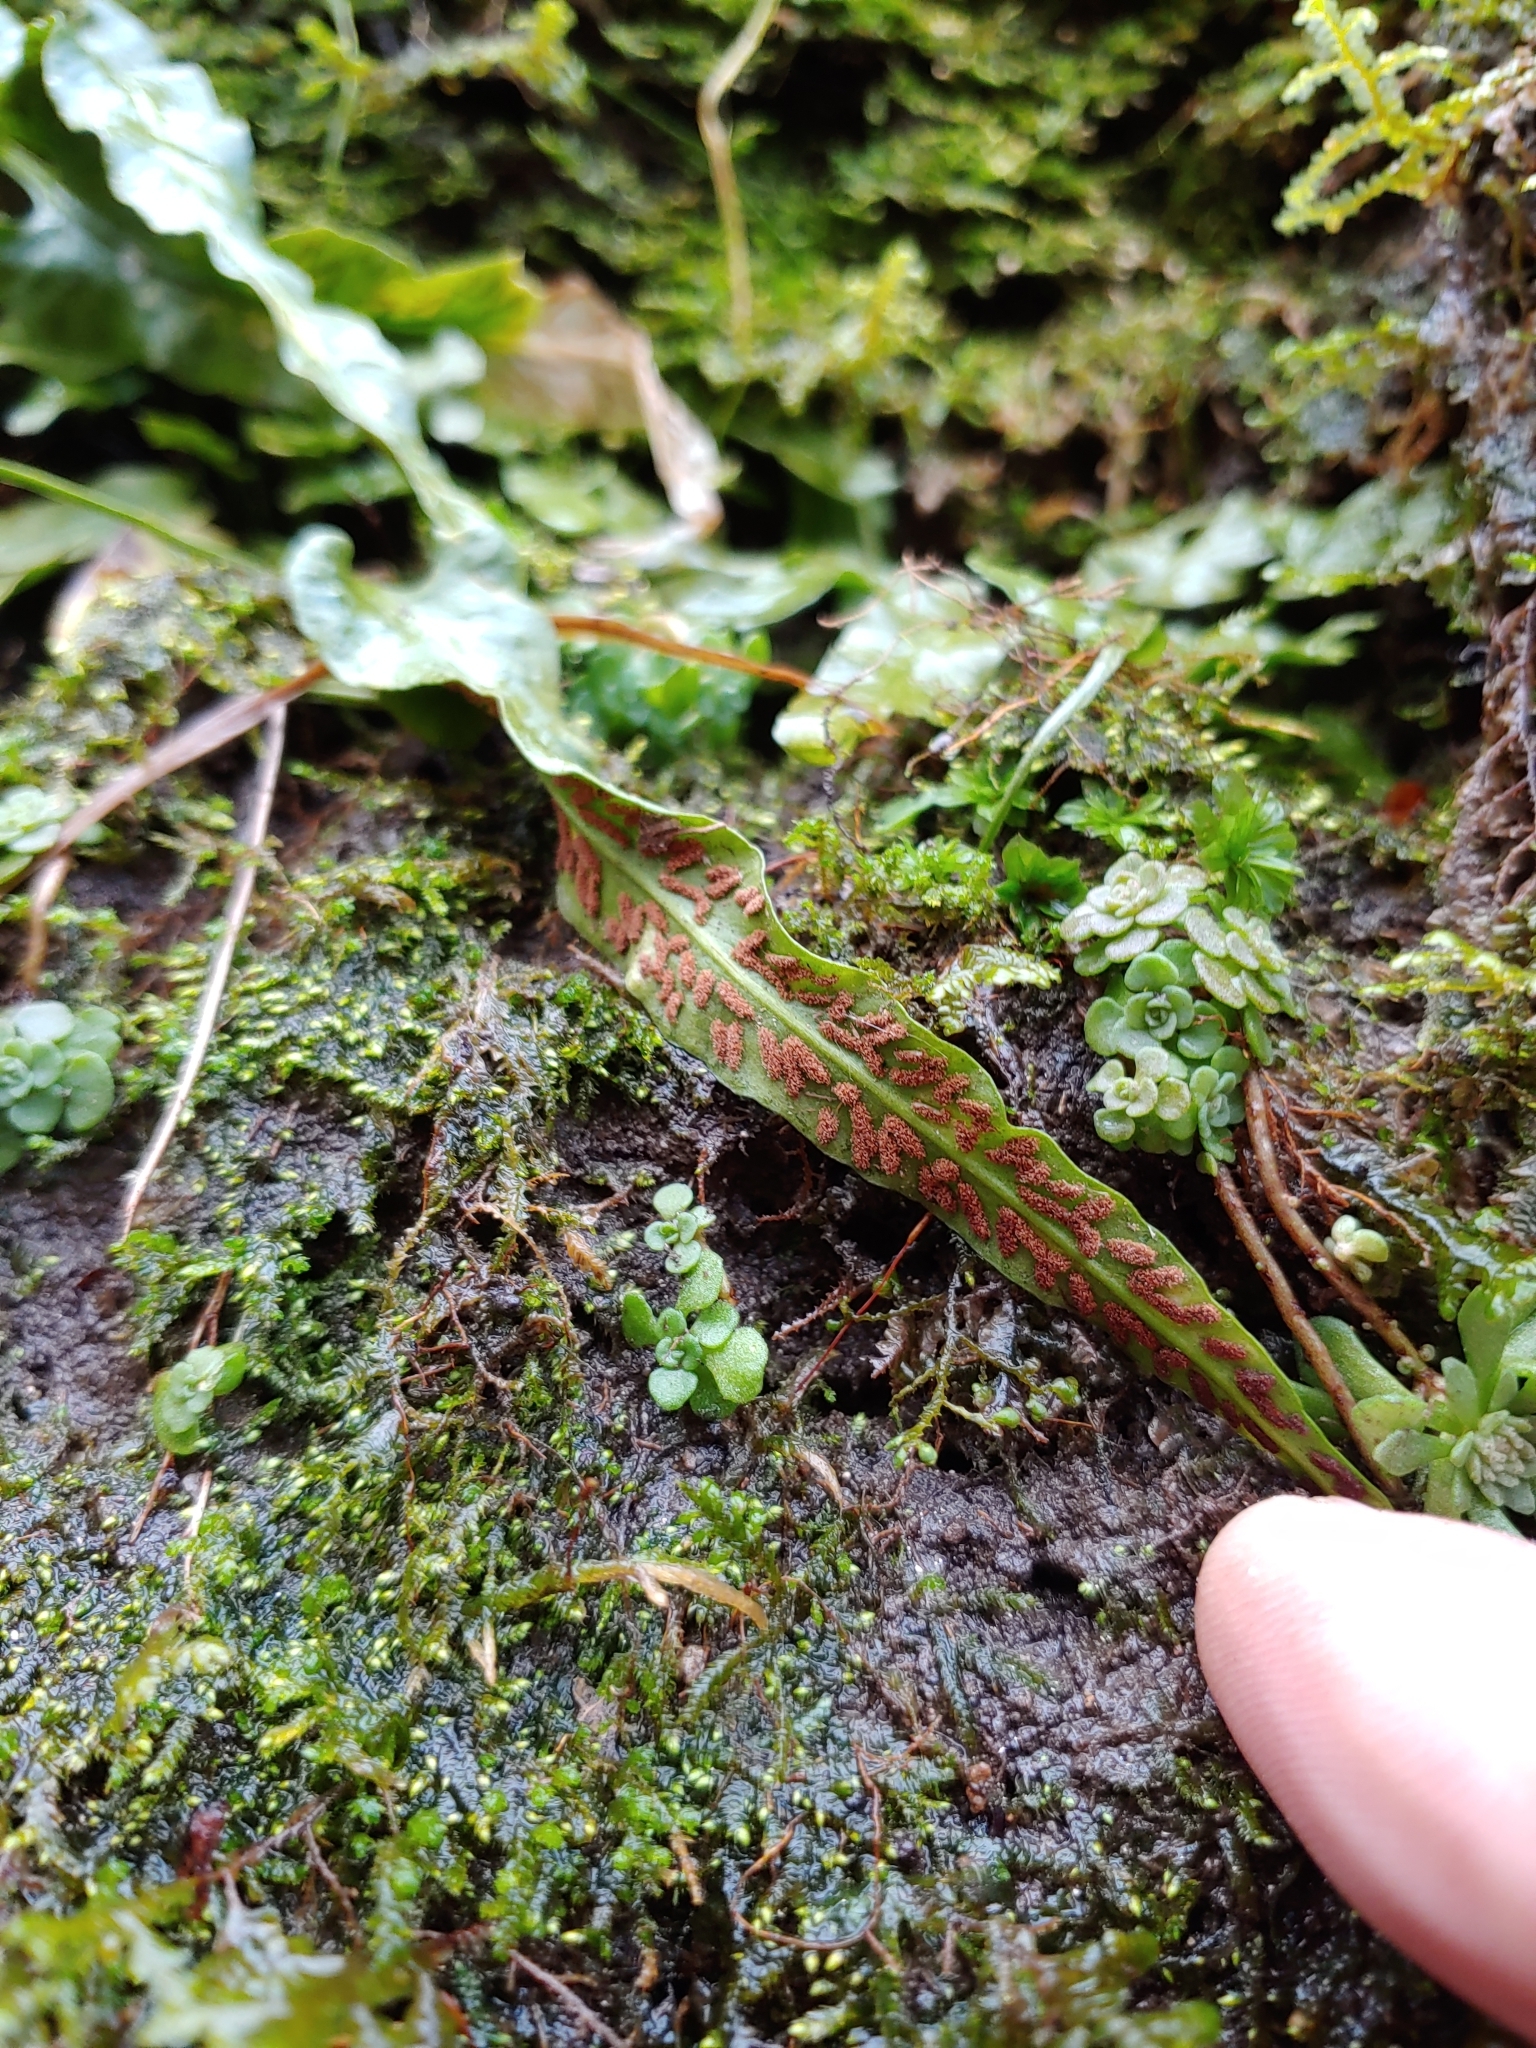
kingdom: Plantae
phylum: Tracheophyta
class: Polypodiopsida
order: Polypodiales
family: Aspleniaceae
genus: Asplenium
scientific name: Asplenium rhizophyllum
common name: Walking fern
